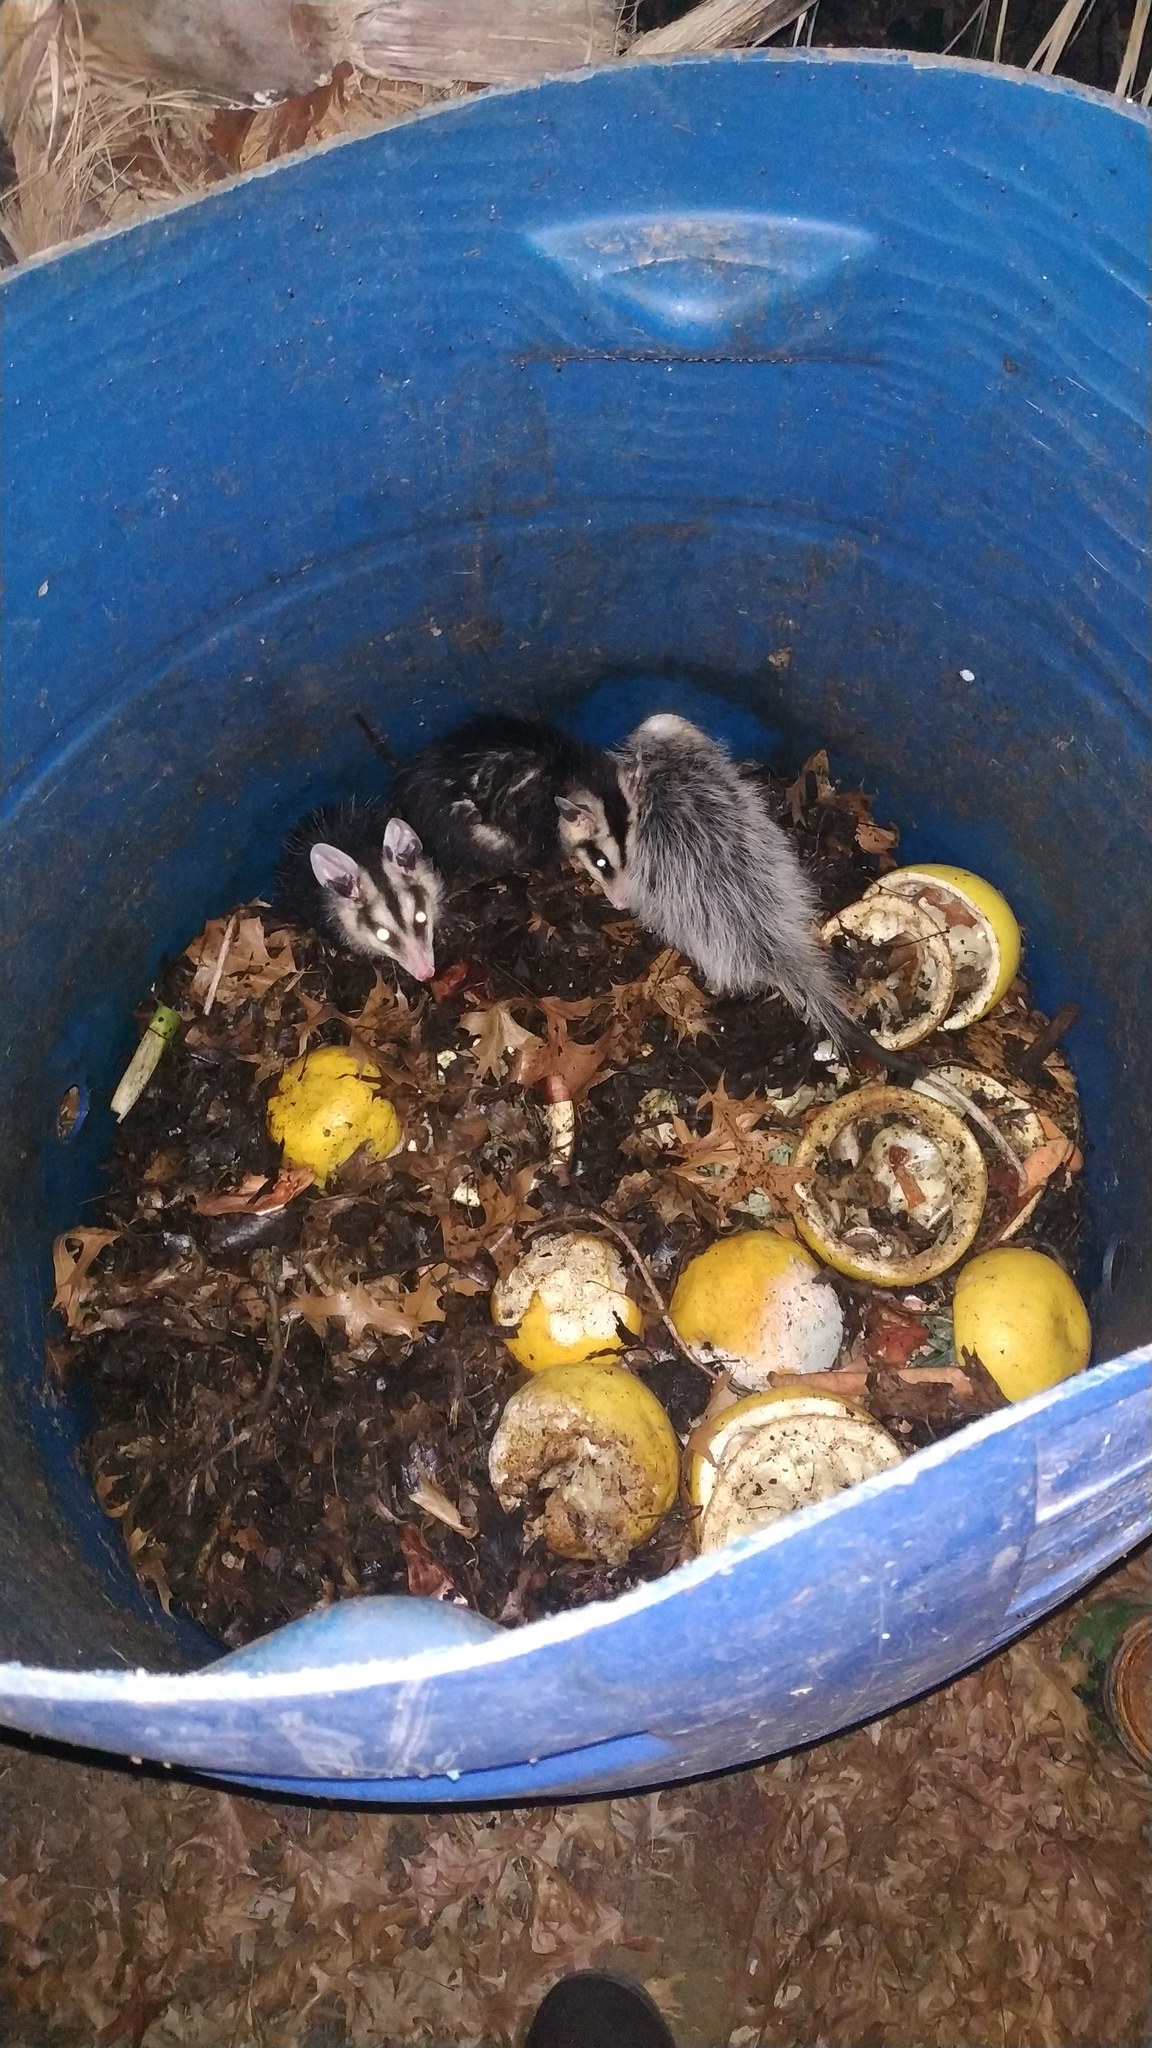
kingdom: Animalia
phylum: Chordata
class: Mammalia
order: Didelphimorphia
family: Didelphidae
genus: Didelphis
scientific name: Didelphis albiventris
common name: White-eared opossum
